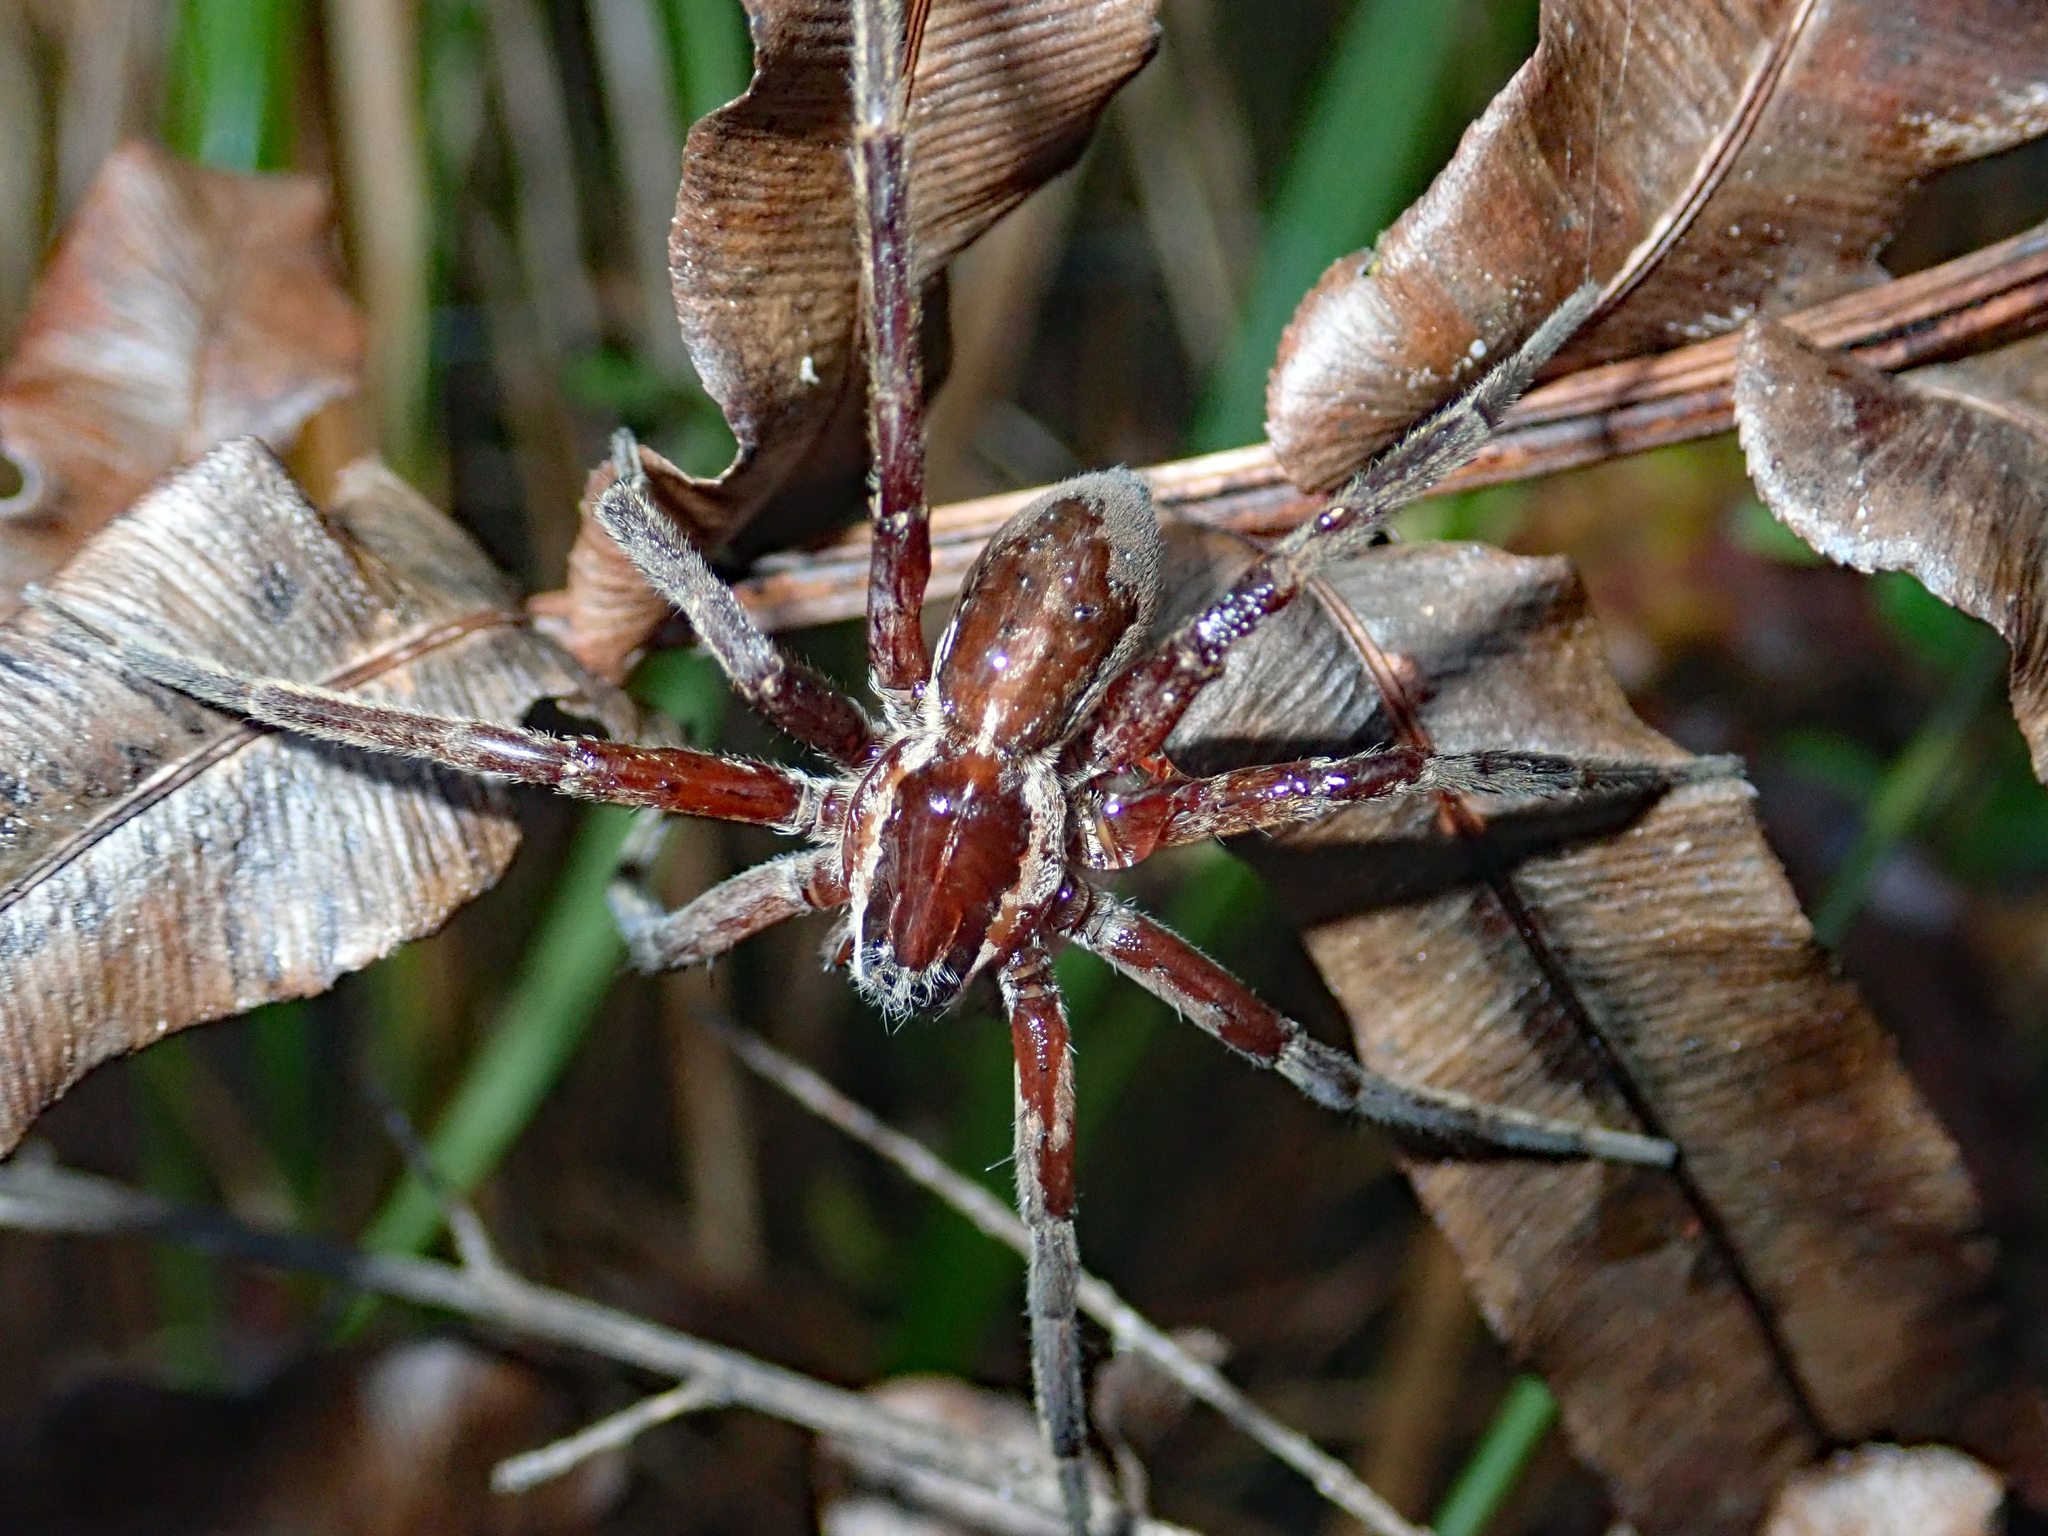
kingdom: Animalia
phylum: Arthropoda
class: Arachnida
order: Araneae
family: Pisauridae
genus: Dolomedes
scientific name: Dolomedes minor
